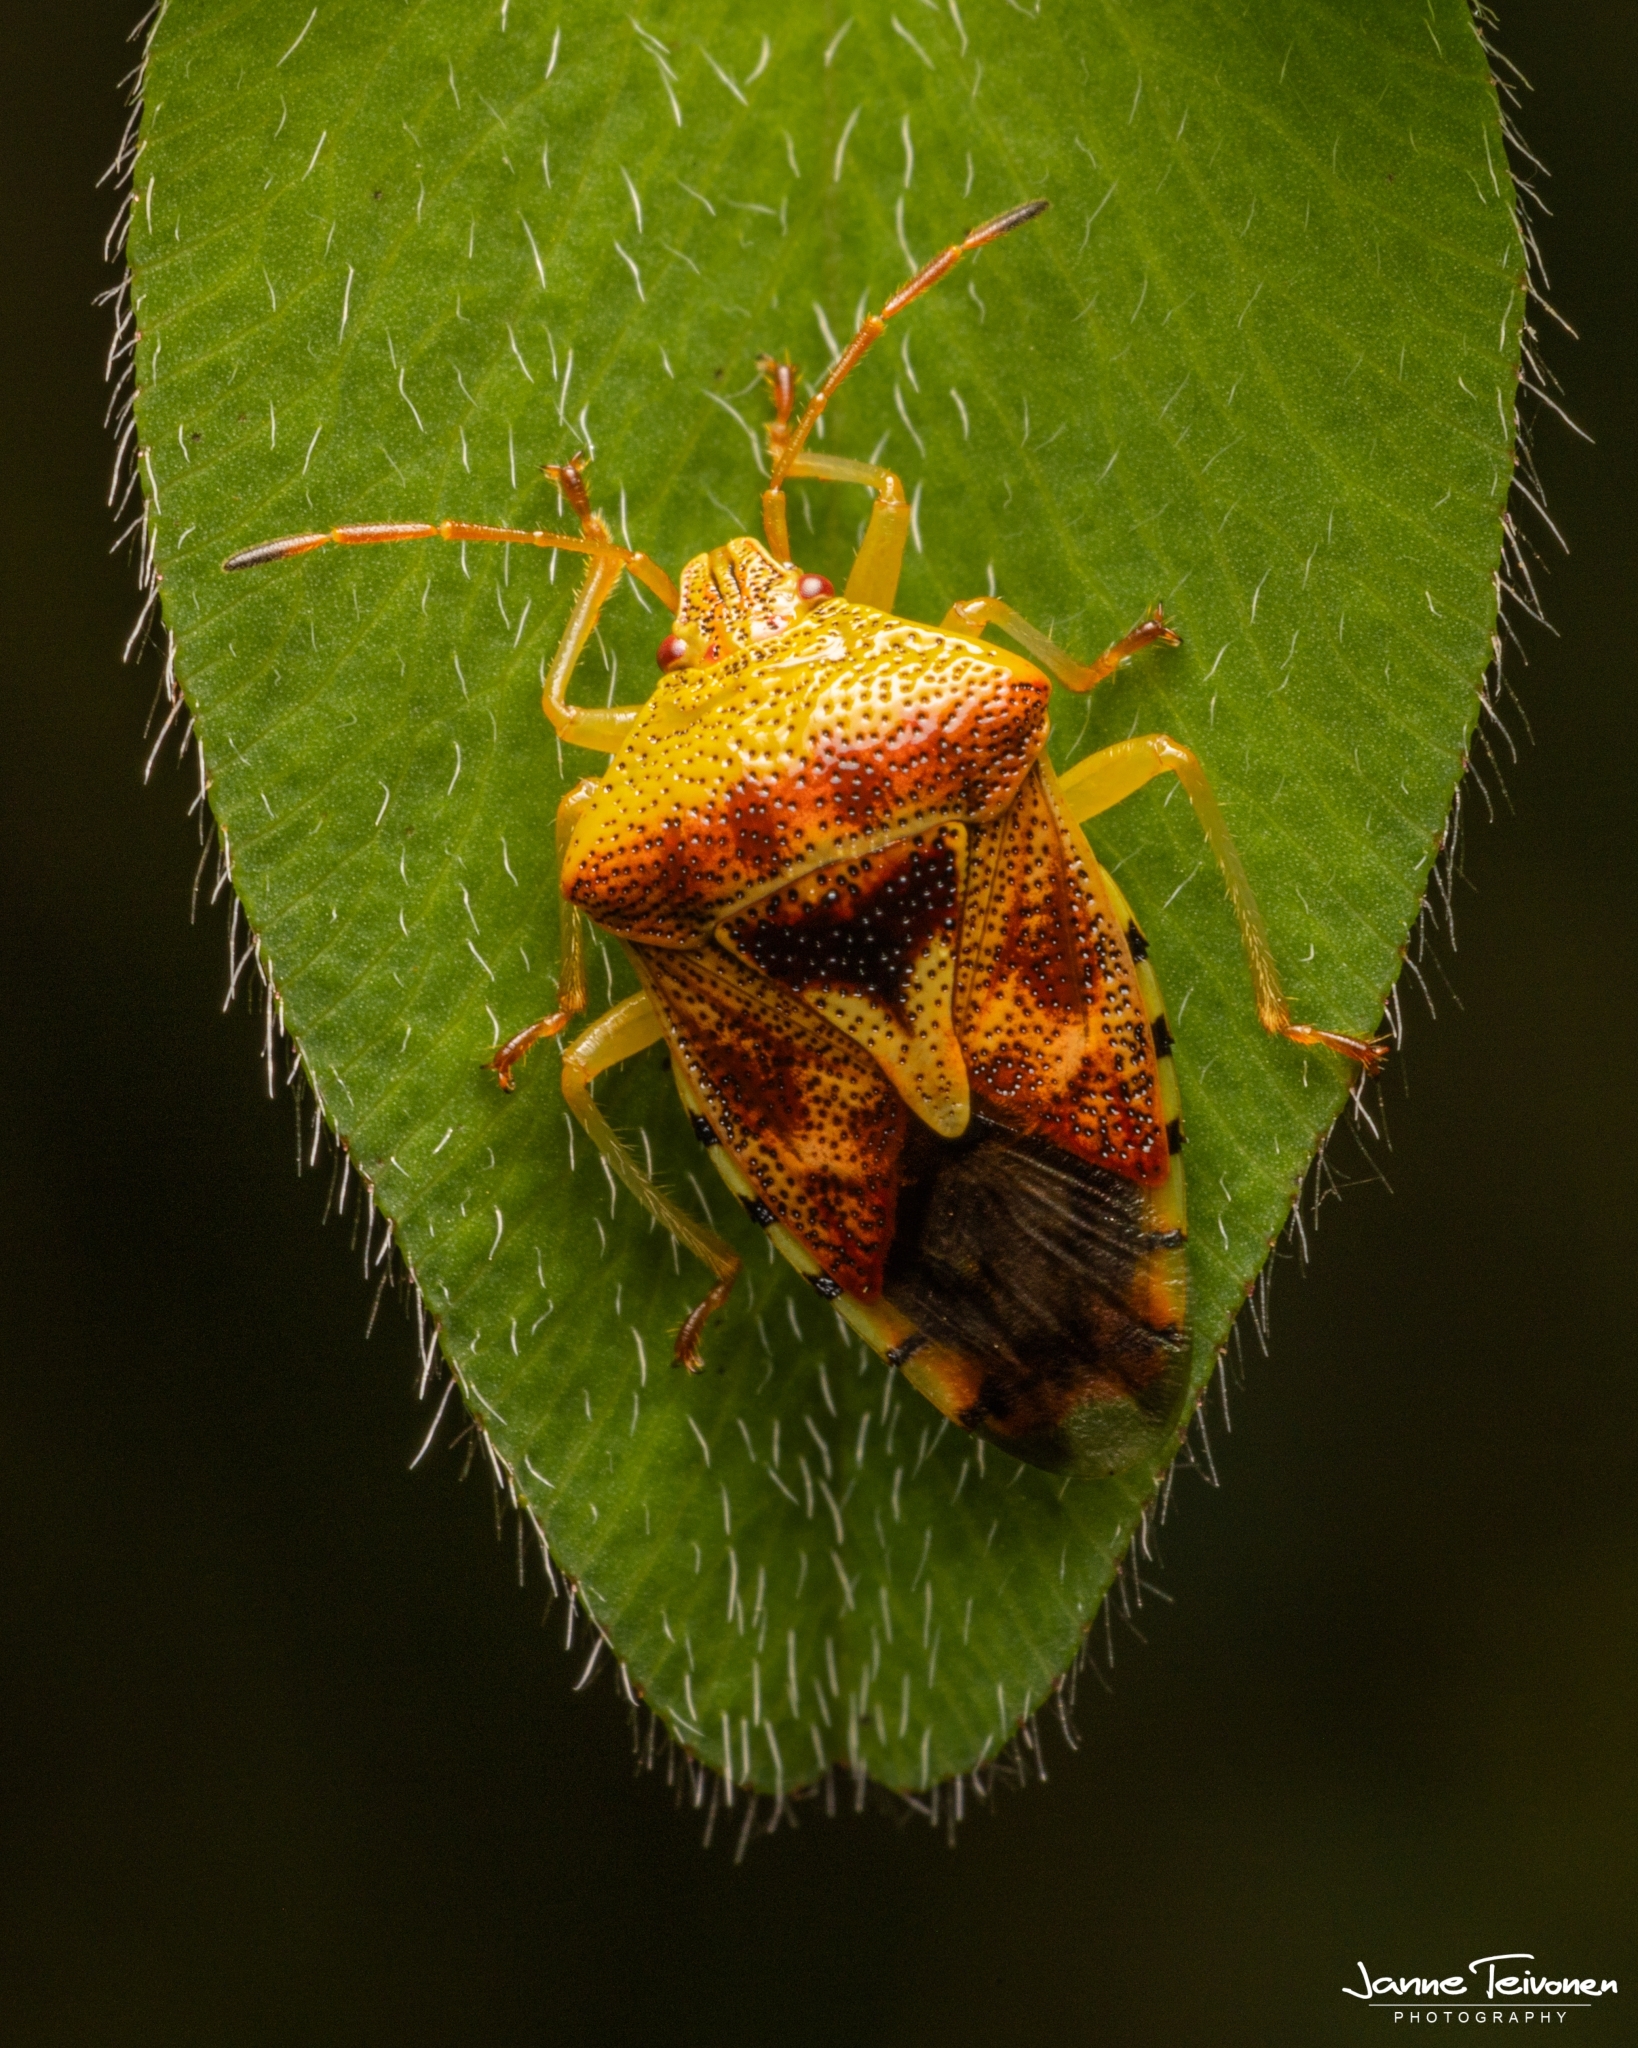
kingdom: Animalia
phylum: Arthropoda
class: Insecta
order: Hemiptera
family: Acanthosomatidae
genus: Elasmucha
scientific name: Elasmucha grisea
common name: Parent bug
